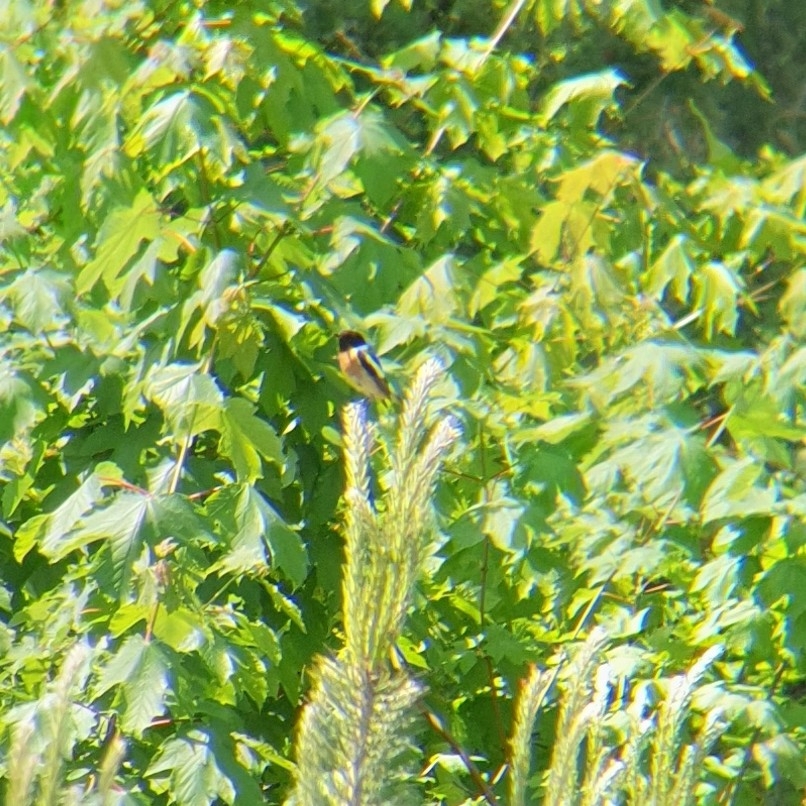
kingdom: Animalia
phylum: Chordata
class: Aves
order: Passeriformes
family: Muscicapidae
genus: Saxicola
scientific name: Saxicola rubicola
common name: European stonechat
